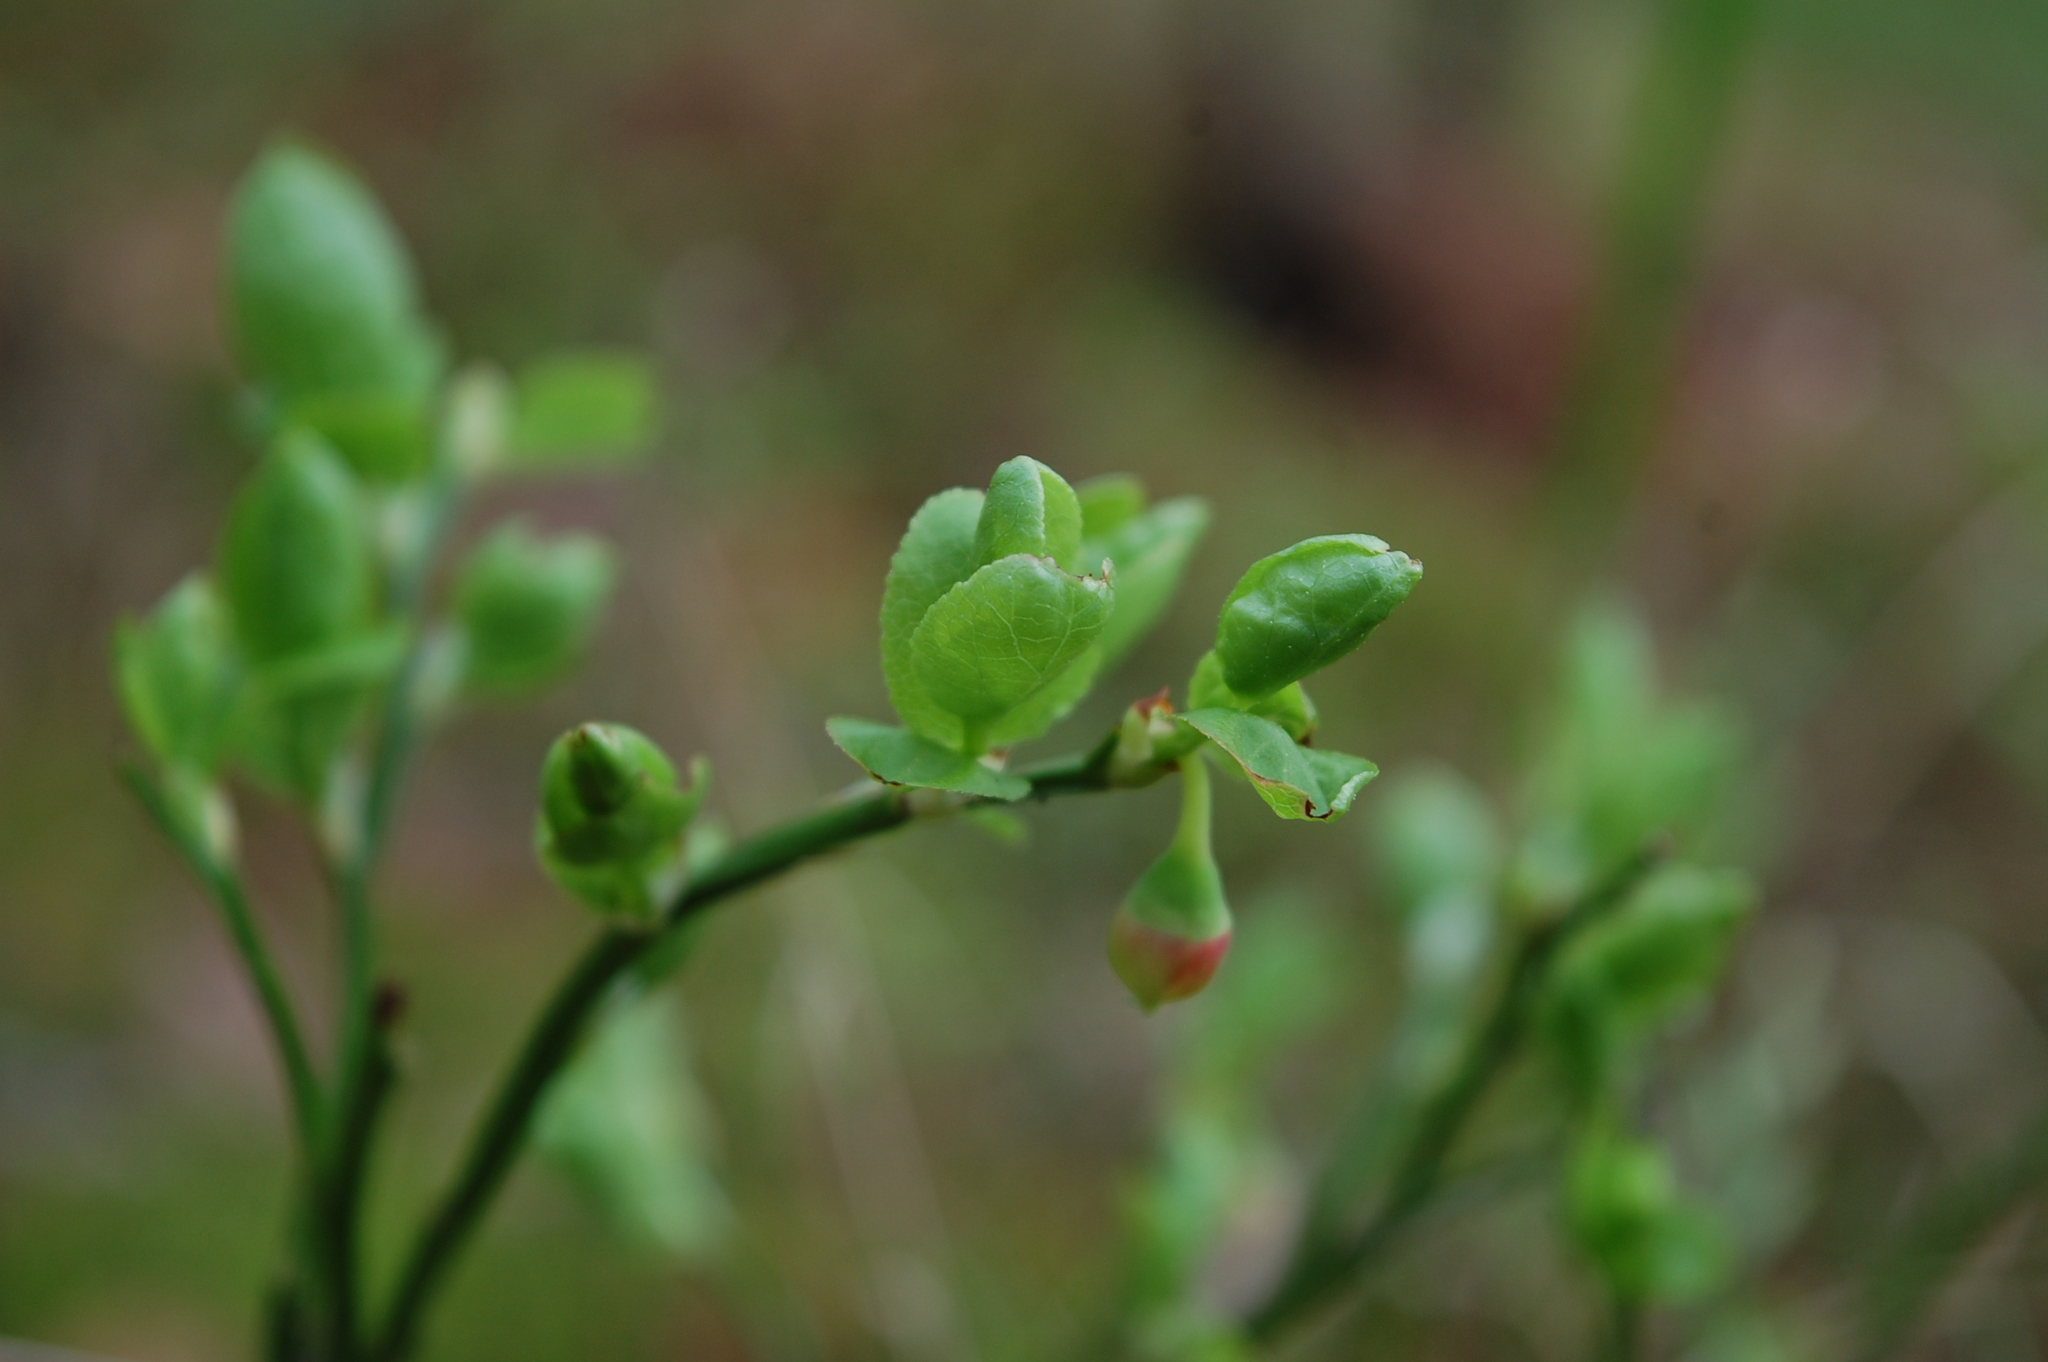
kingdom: Plantae
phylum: Tracheophyta
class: Magnoliopsida
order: Ericales
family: Ericaceae
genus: Vaccinium
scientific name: Vaccinium myrtillus
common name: Bilberry
